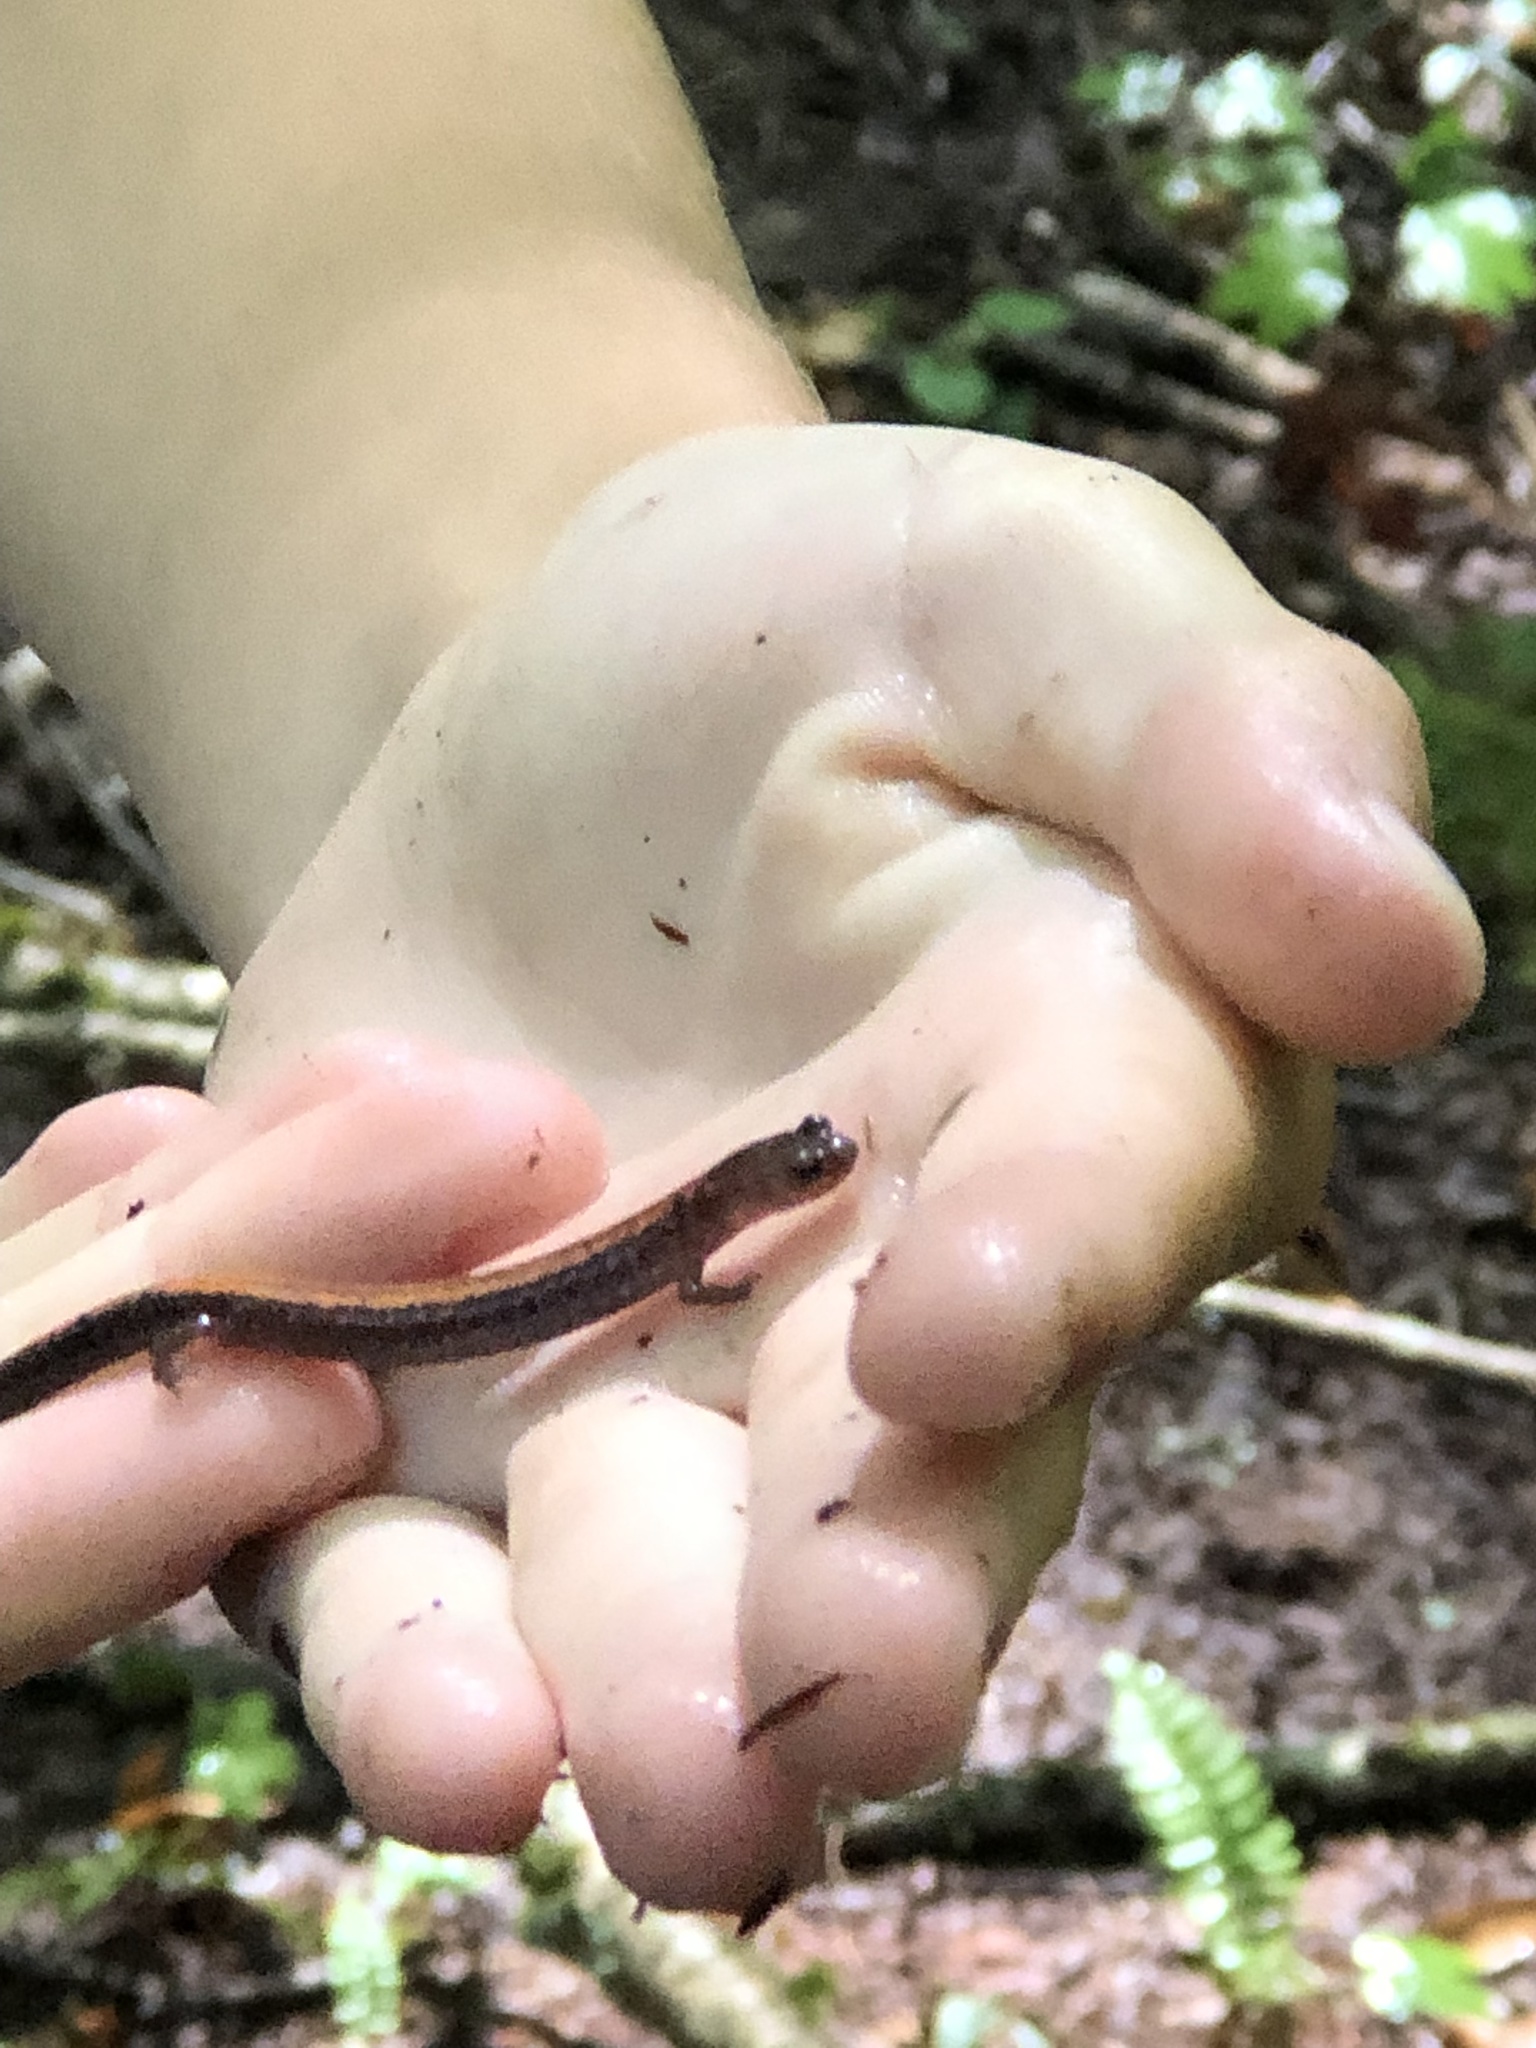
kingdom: Animalia
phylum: Chordata
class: Amphibia
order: Caudata
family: Plethodontidae
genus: Plethodon
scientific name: Plethodon cinereus
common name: Redback salamander
